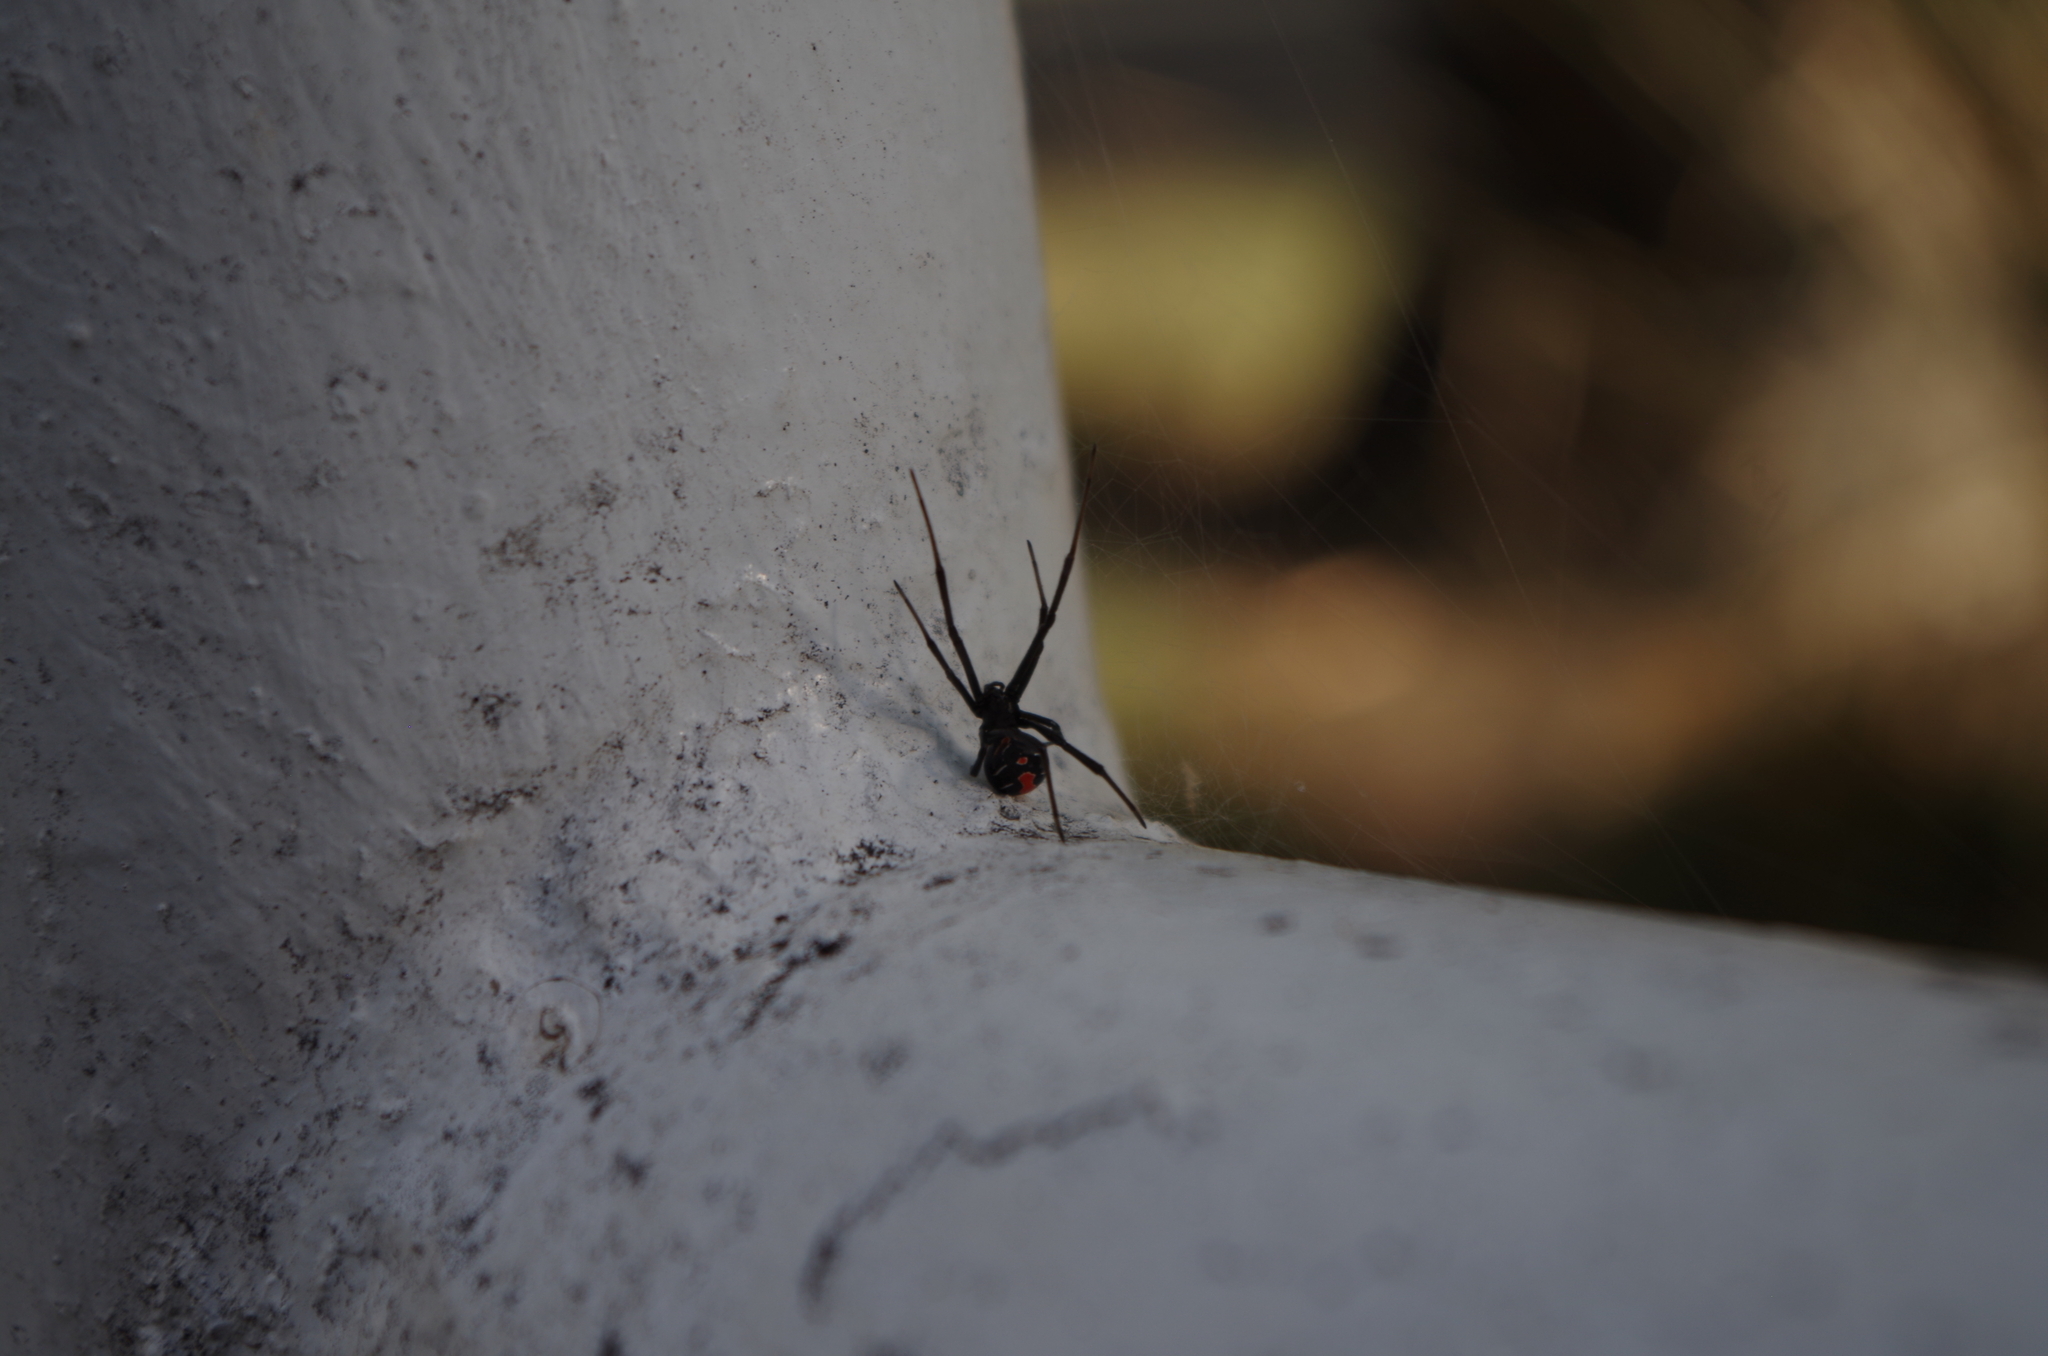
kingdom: Animalia
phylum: Arthropoda
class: Arachnida
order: Araneae
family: Theridiidae
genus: Latrodectus
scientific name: Latrodectus hasselti
